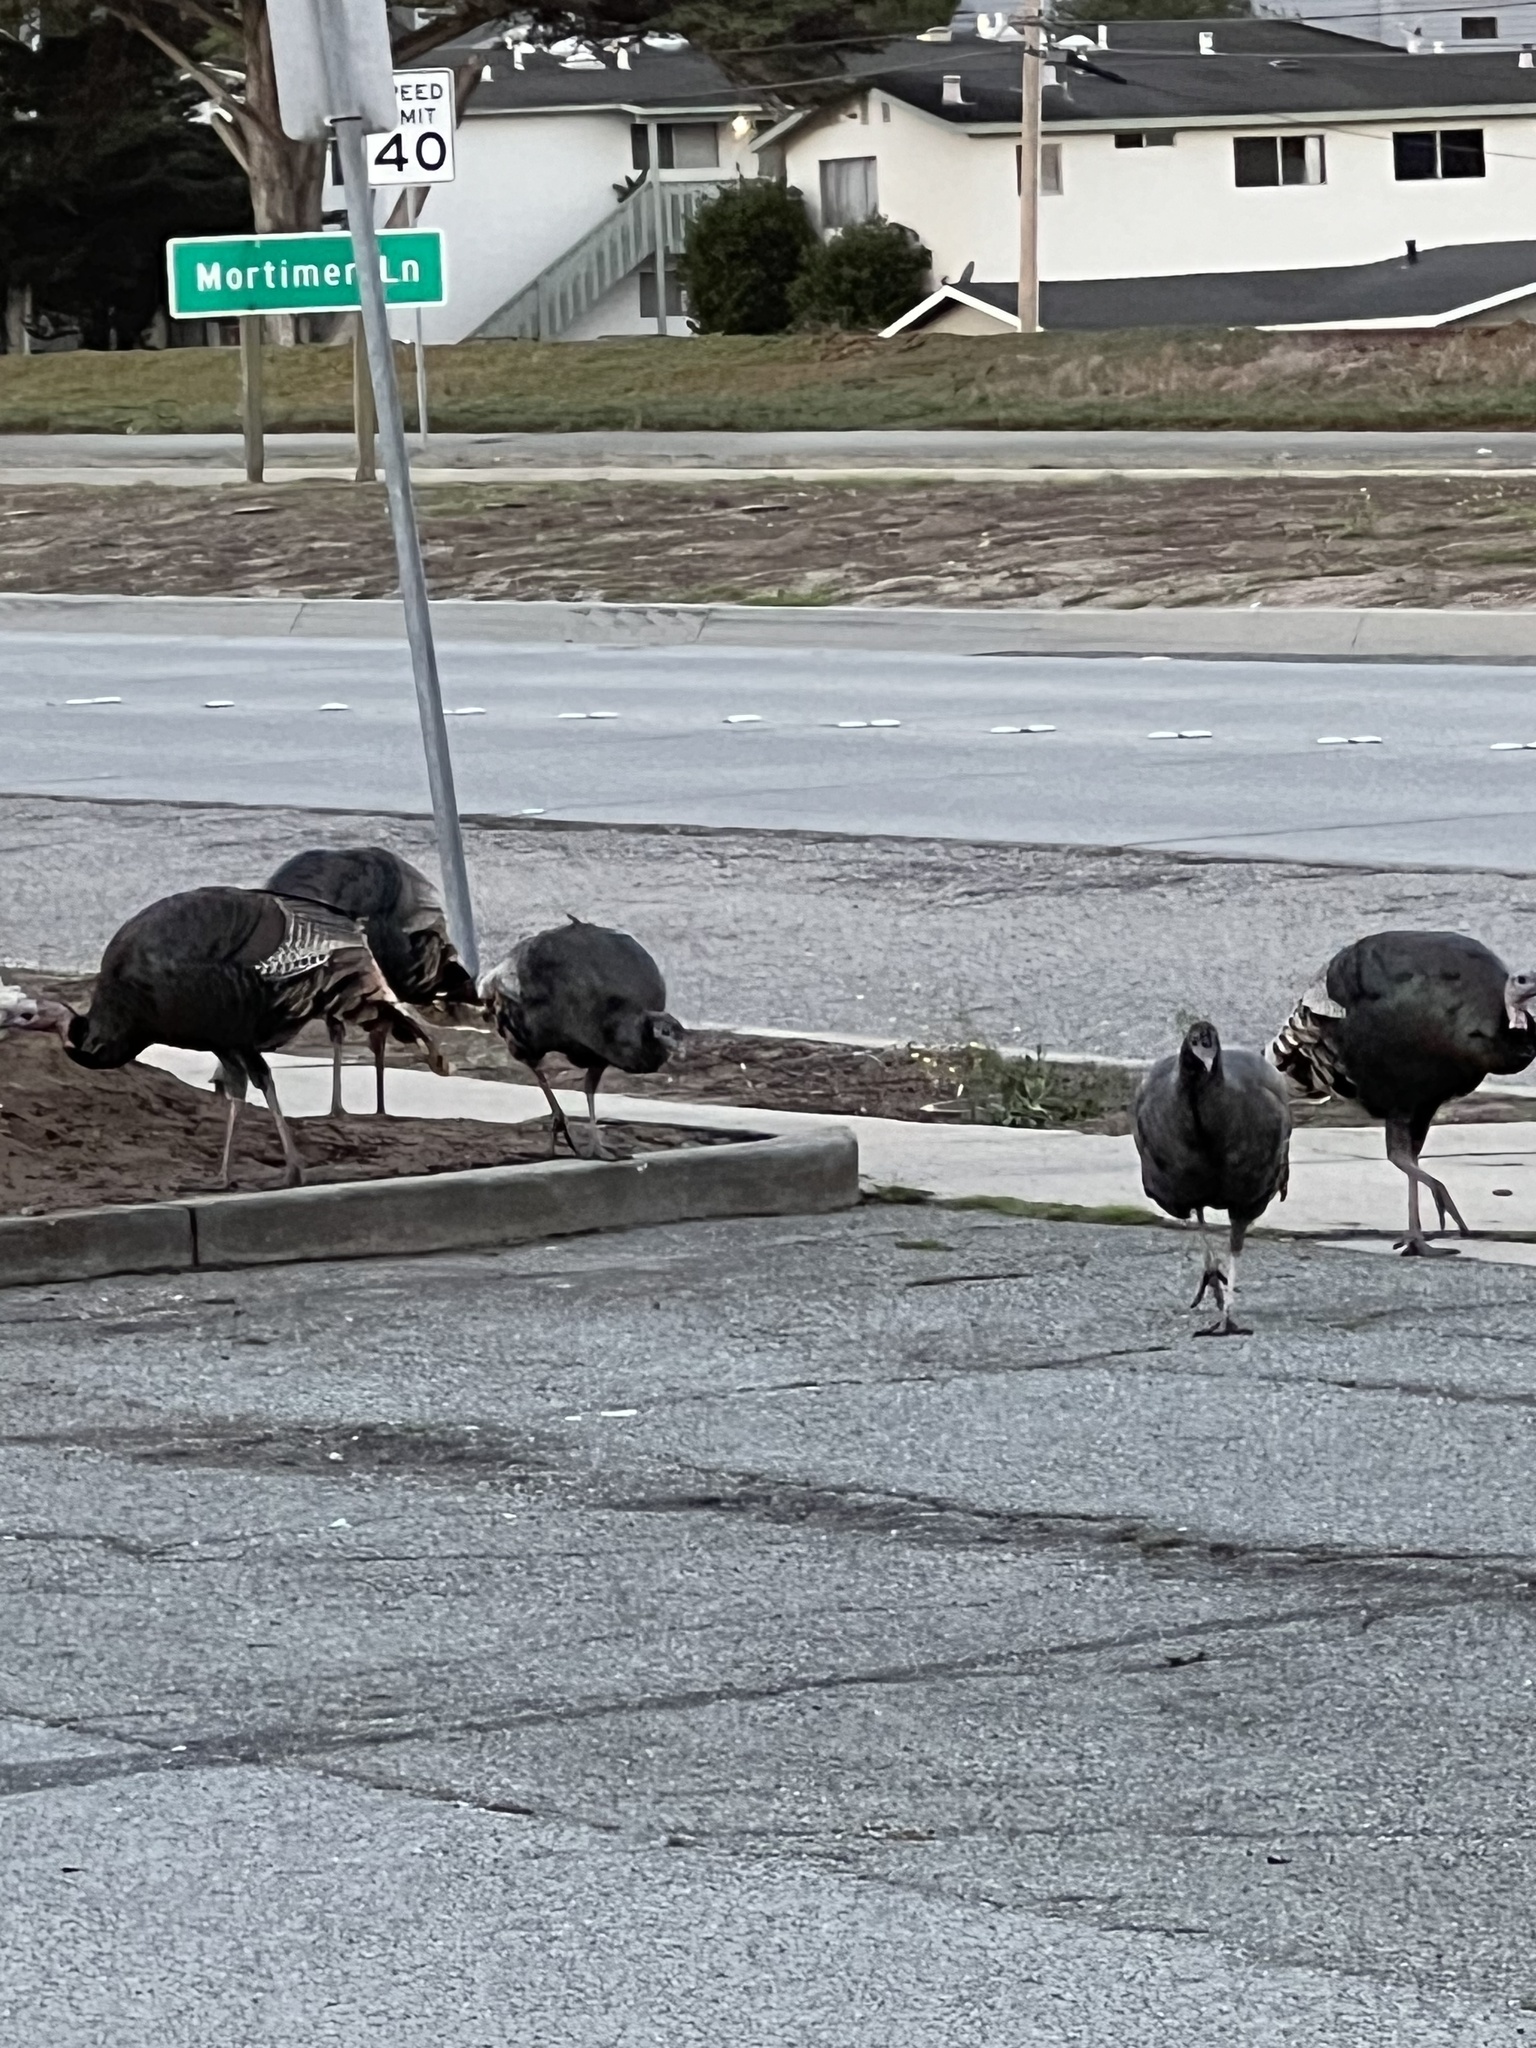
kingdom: Animalia
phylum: Chordata
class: Aves
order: Galliformes
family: Phasianidae
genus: Meleagris
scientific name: Meleagris gallopavo
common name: Wild turkey
